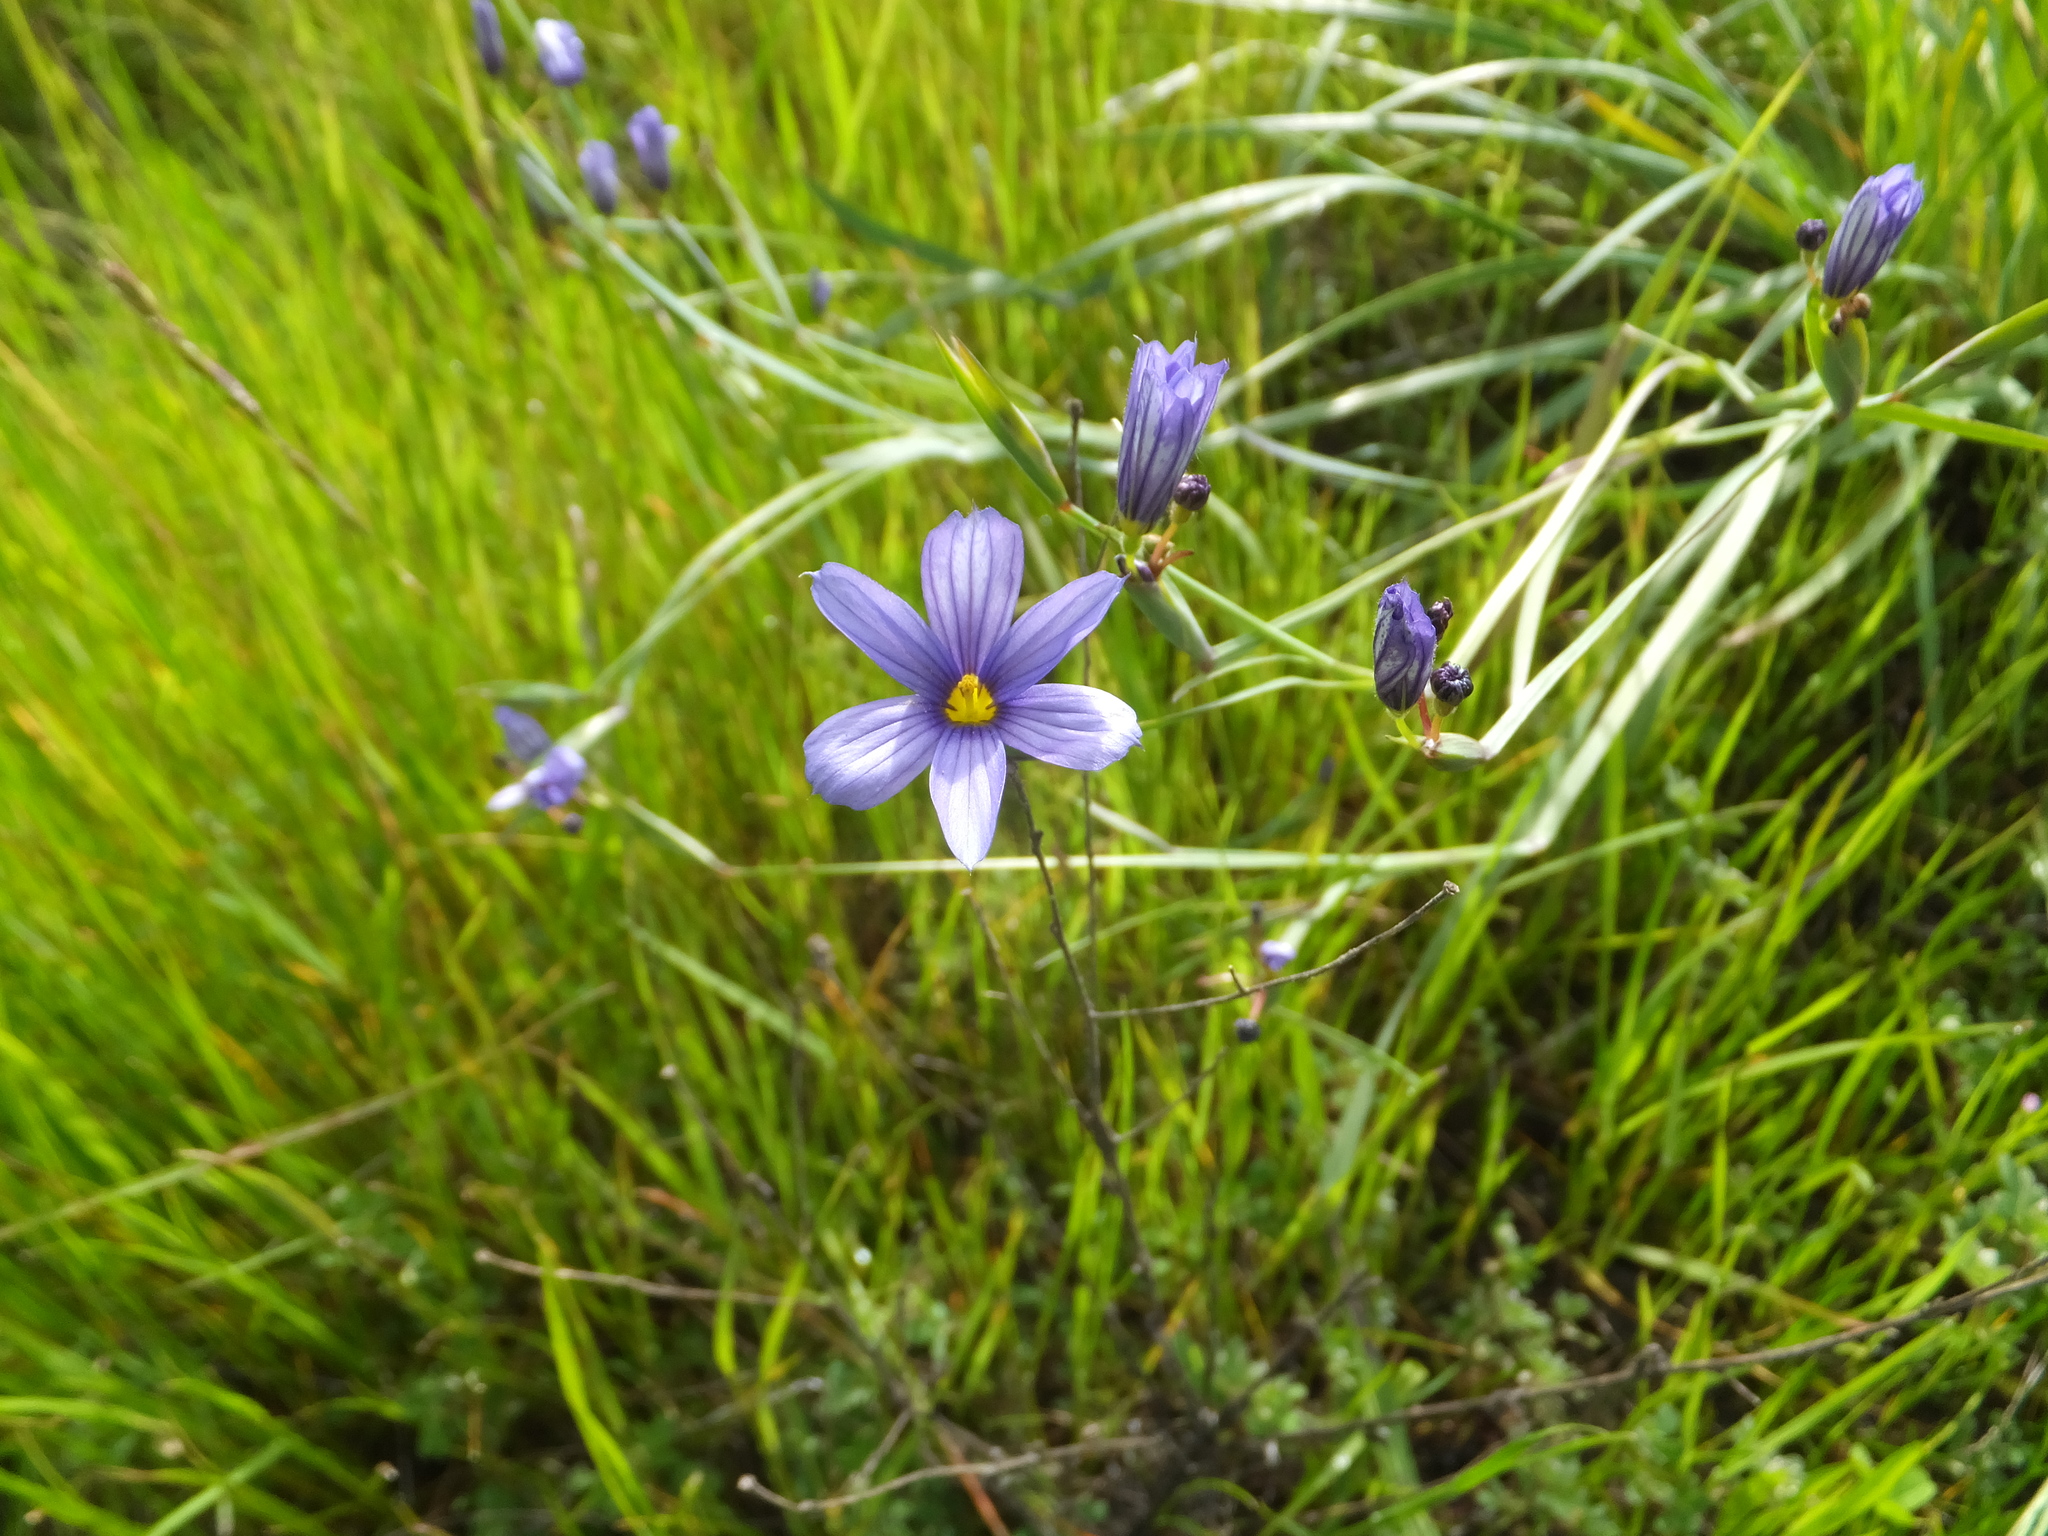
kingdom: Plantae
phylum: Tracheophyta
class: Liliopsida
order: Asparagales
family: Iridaceae
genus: Sisyrinchium
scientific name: Sisyrinchium bellum
